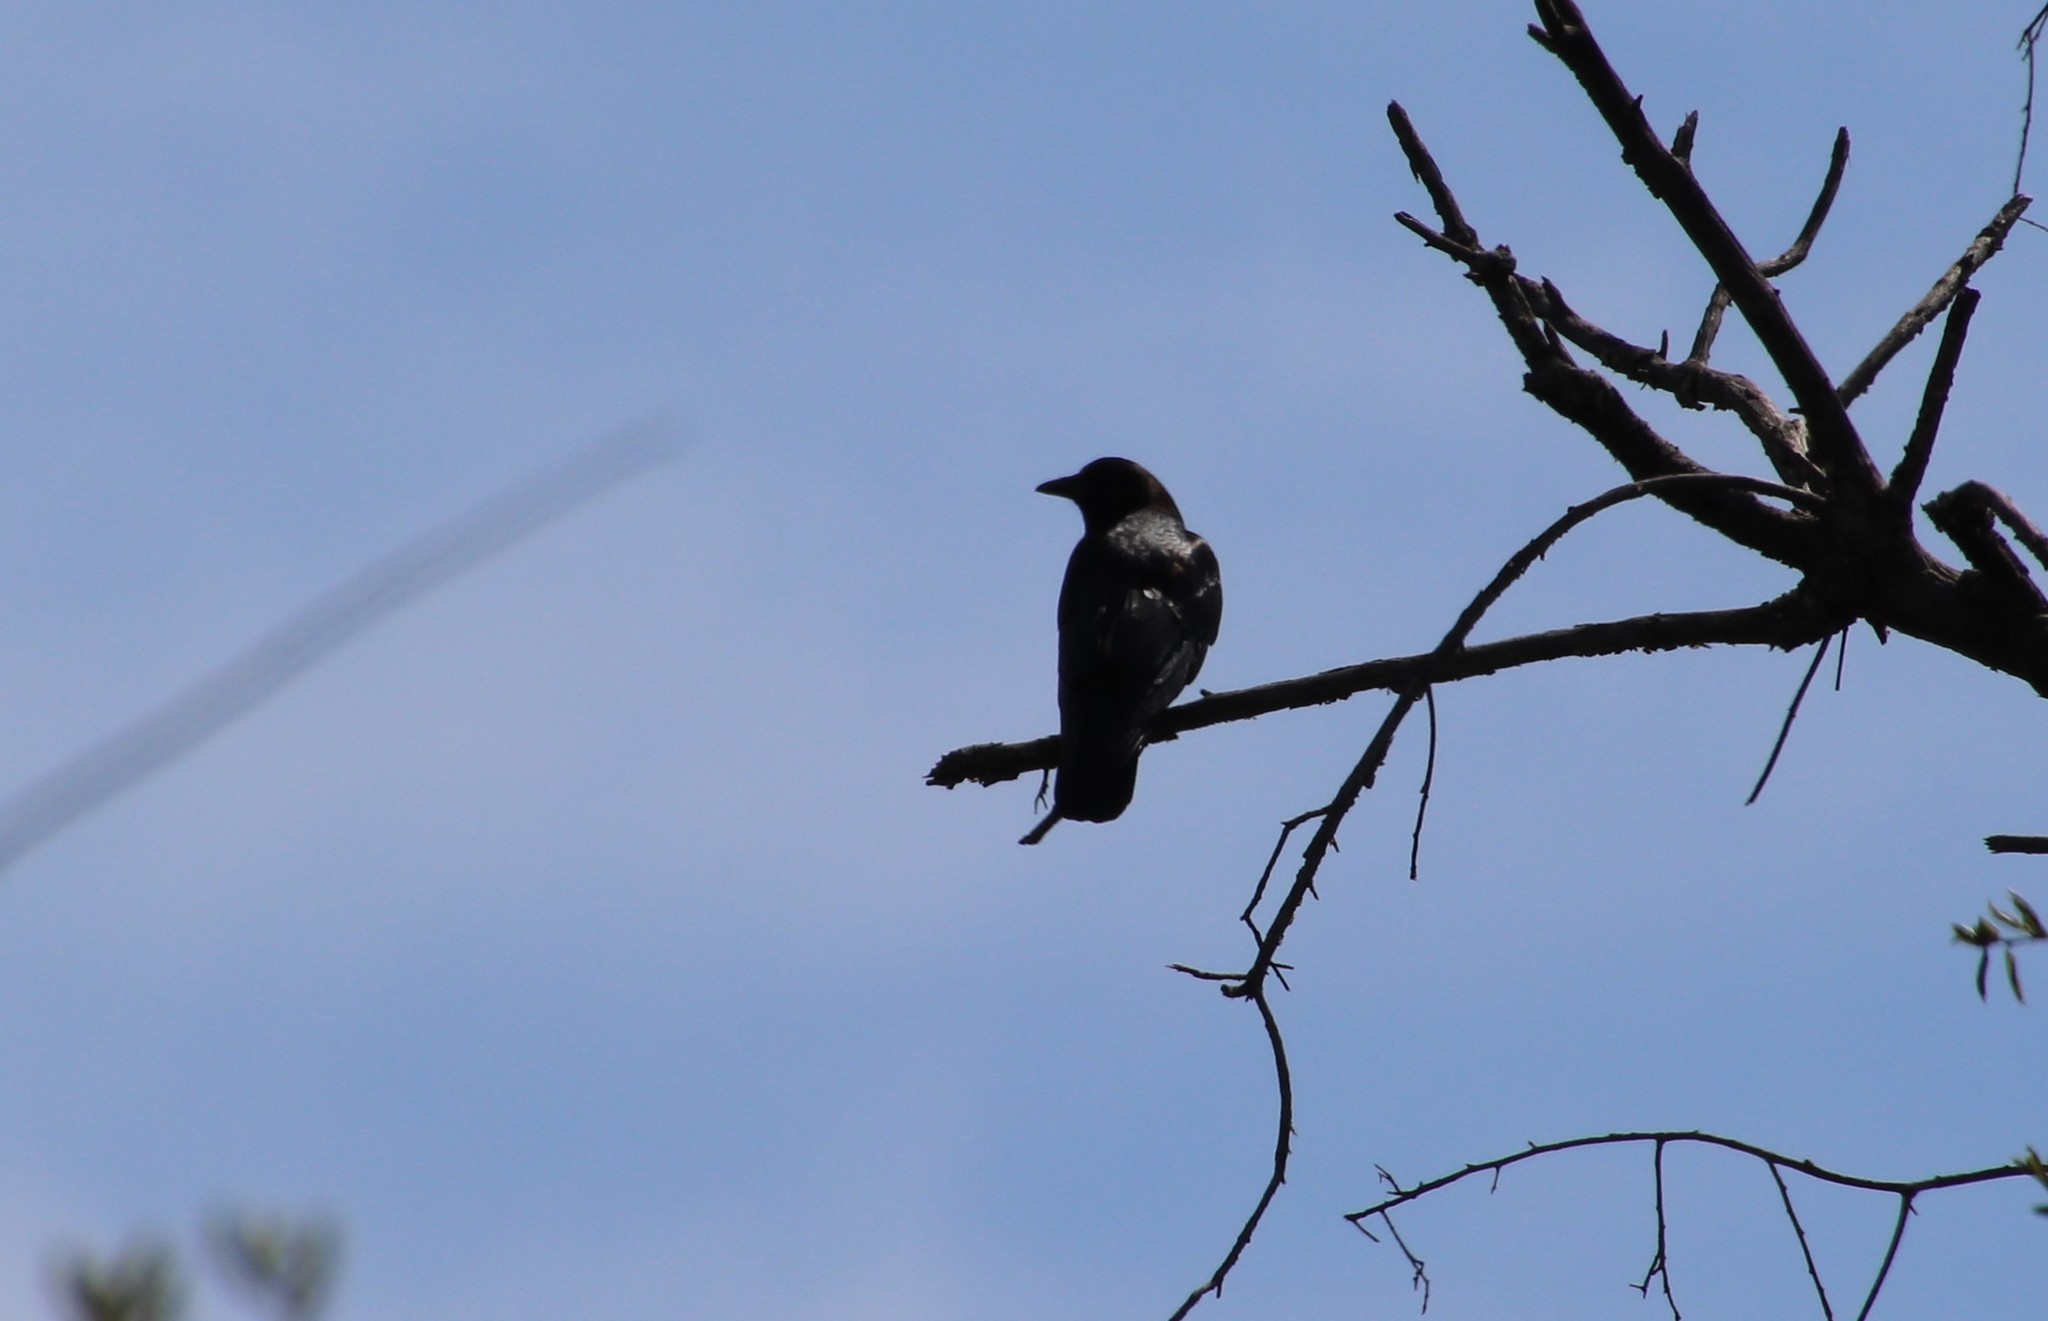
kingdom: Animalia
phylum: Chordata
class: Aves
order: Passeriformes
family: Corvidae
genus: Corvus
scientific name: Corvus brachyrhynchos
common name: American crow
